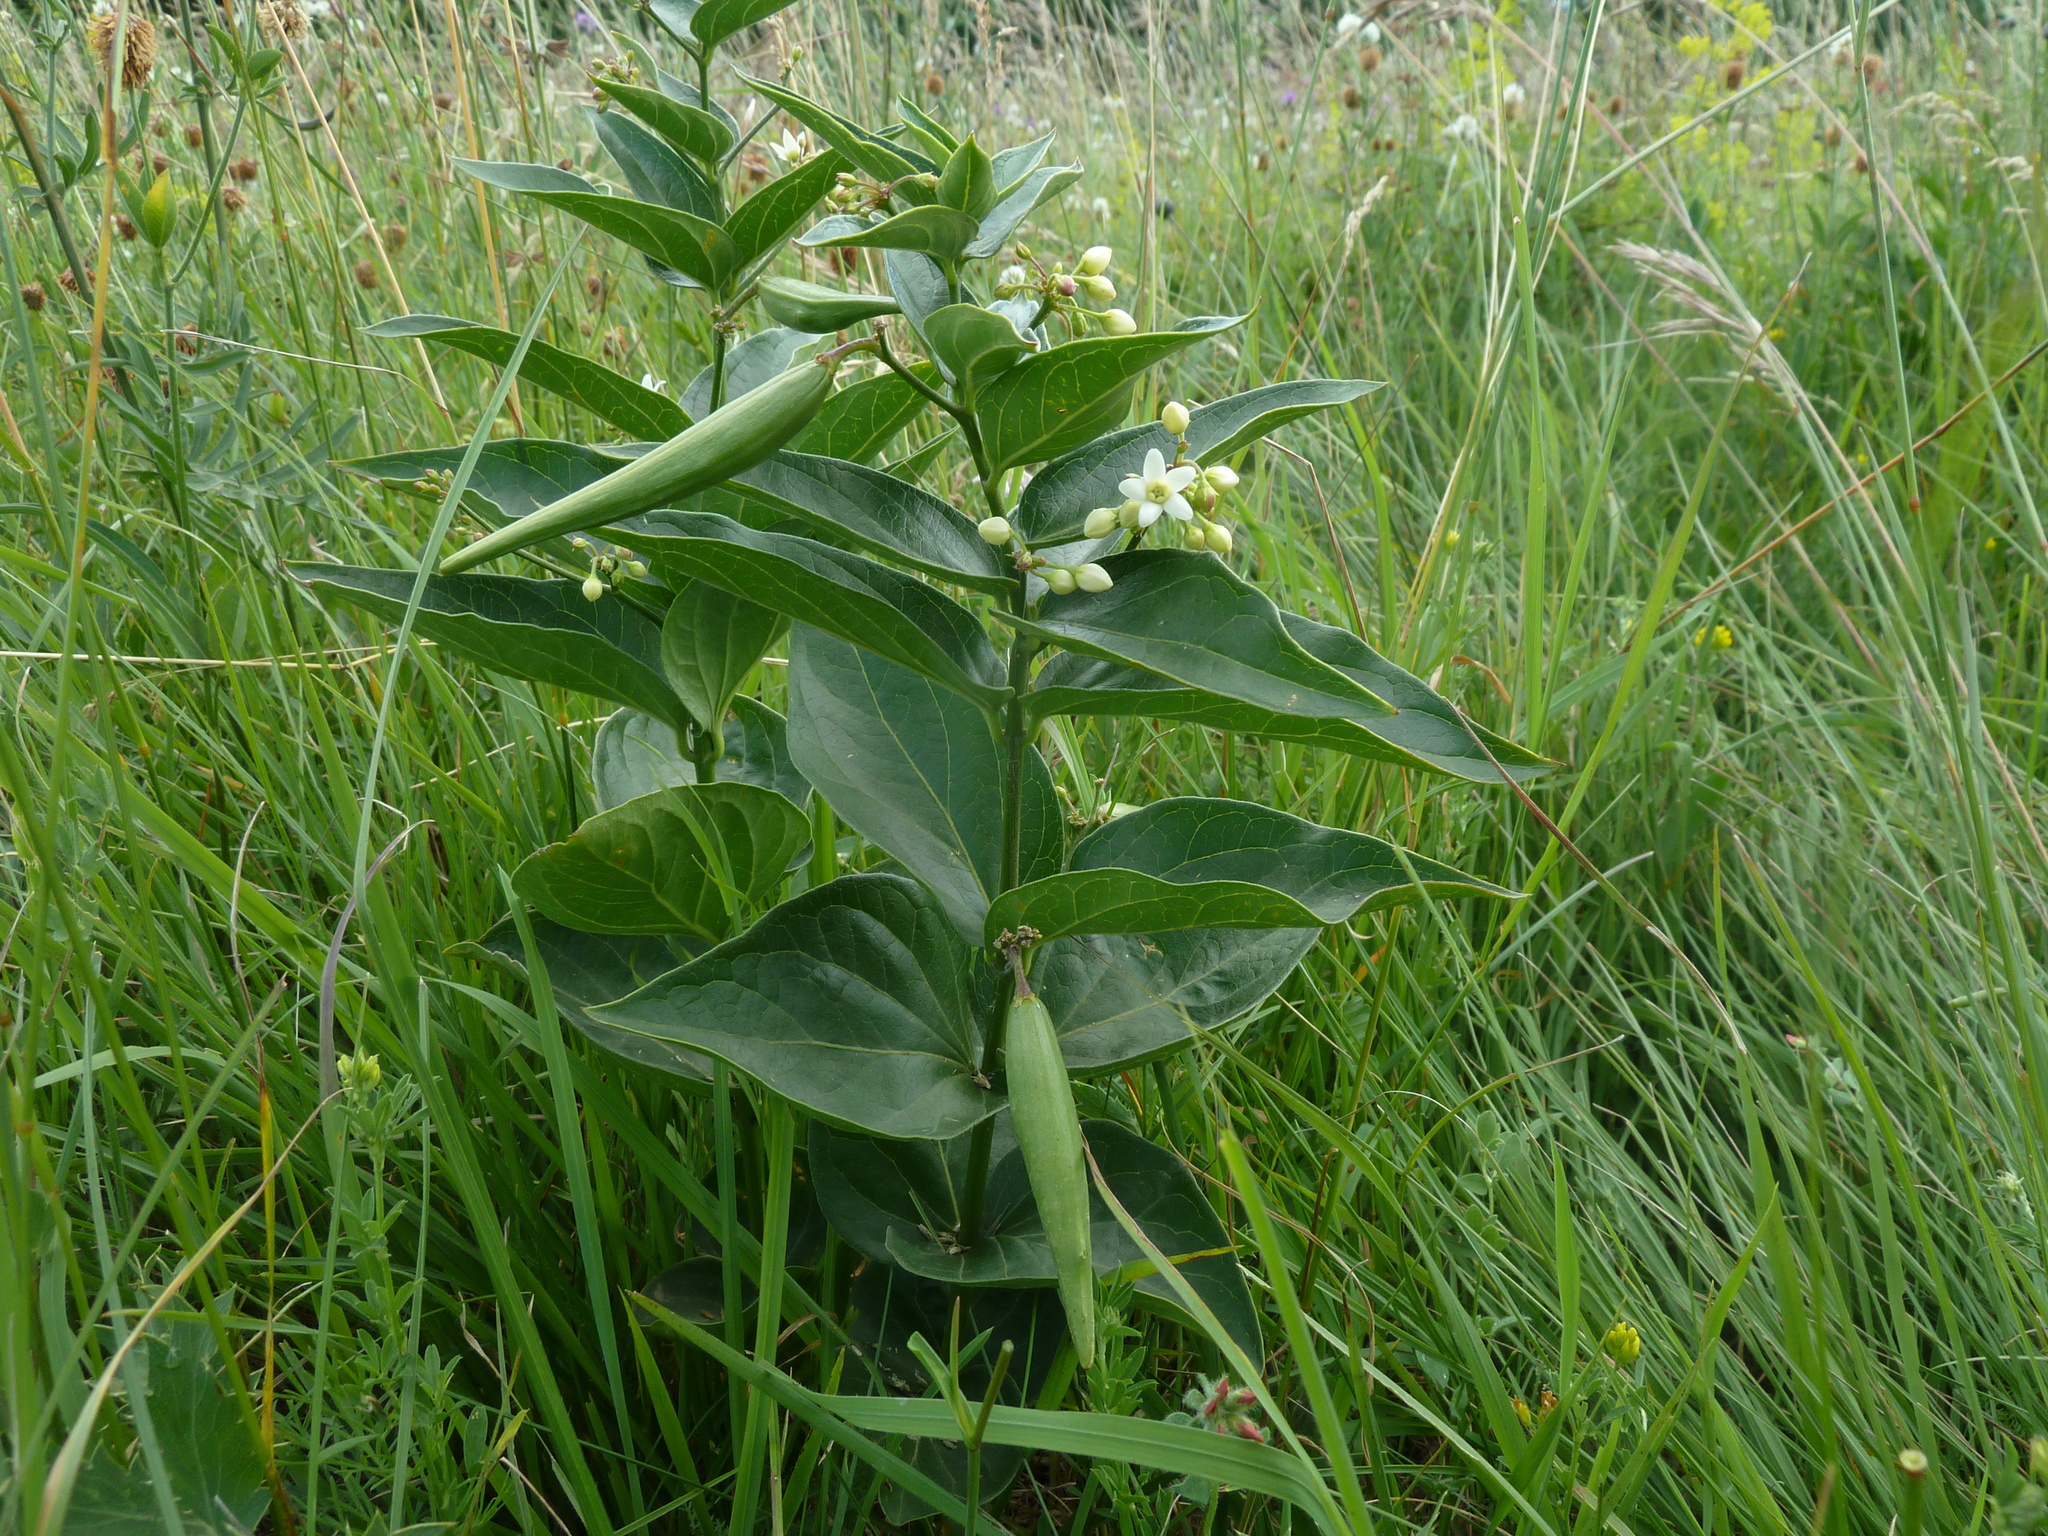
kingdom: Plantae
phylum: Tracheophyta
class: Magnoliopsida
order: Gentianales
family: Apocynaceae
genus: Vincetoxicum
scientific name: Vincetoxicum hirundinaria
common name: White swallowwort
